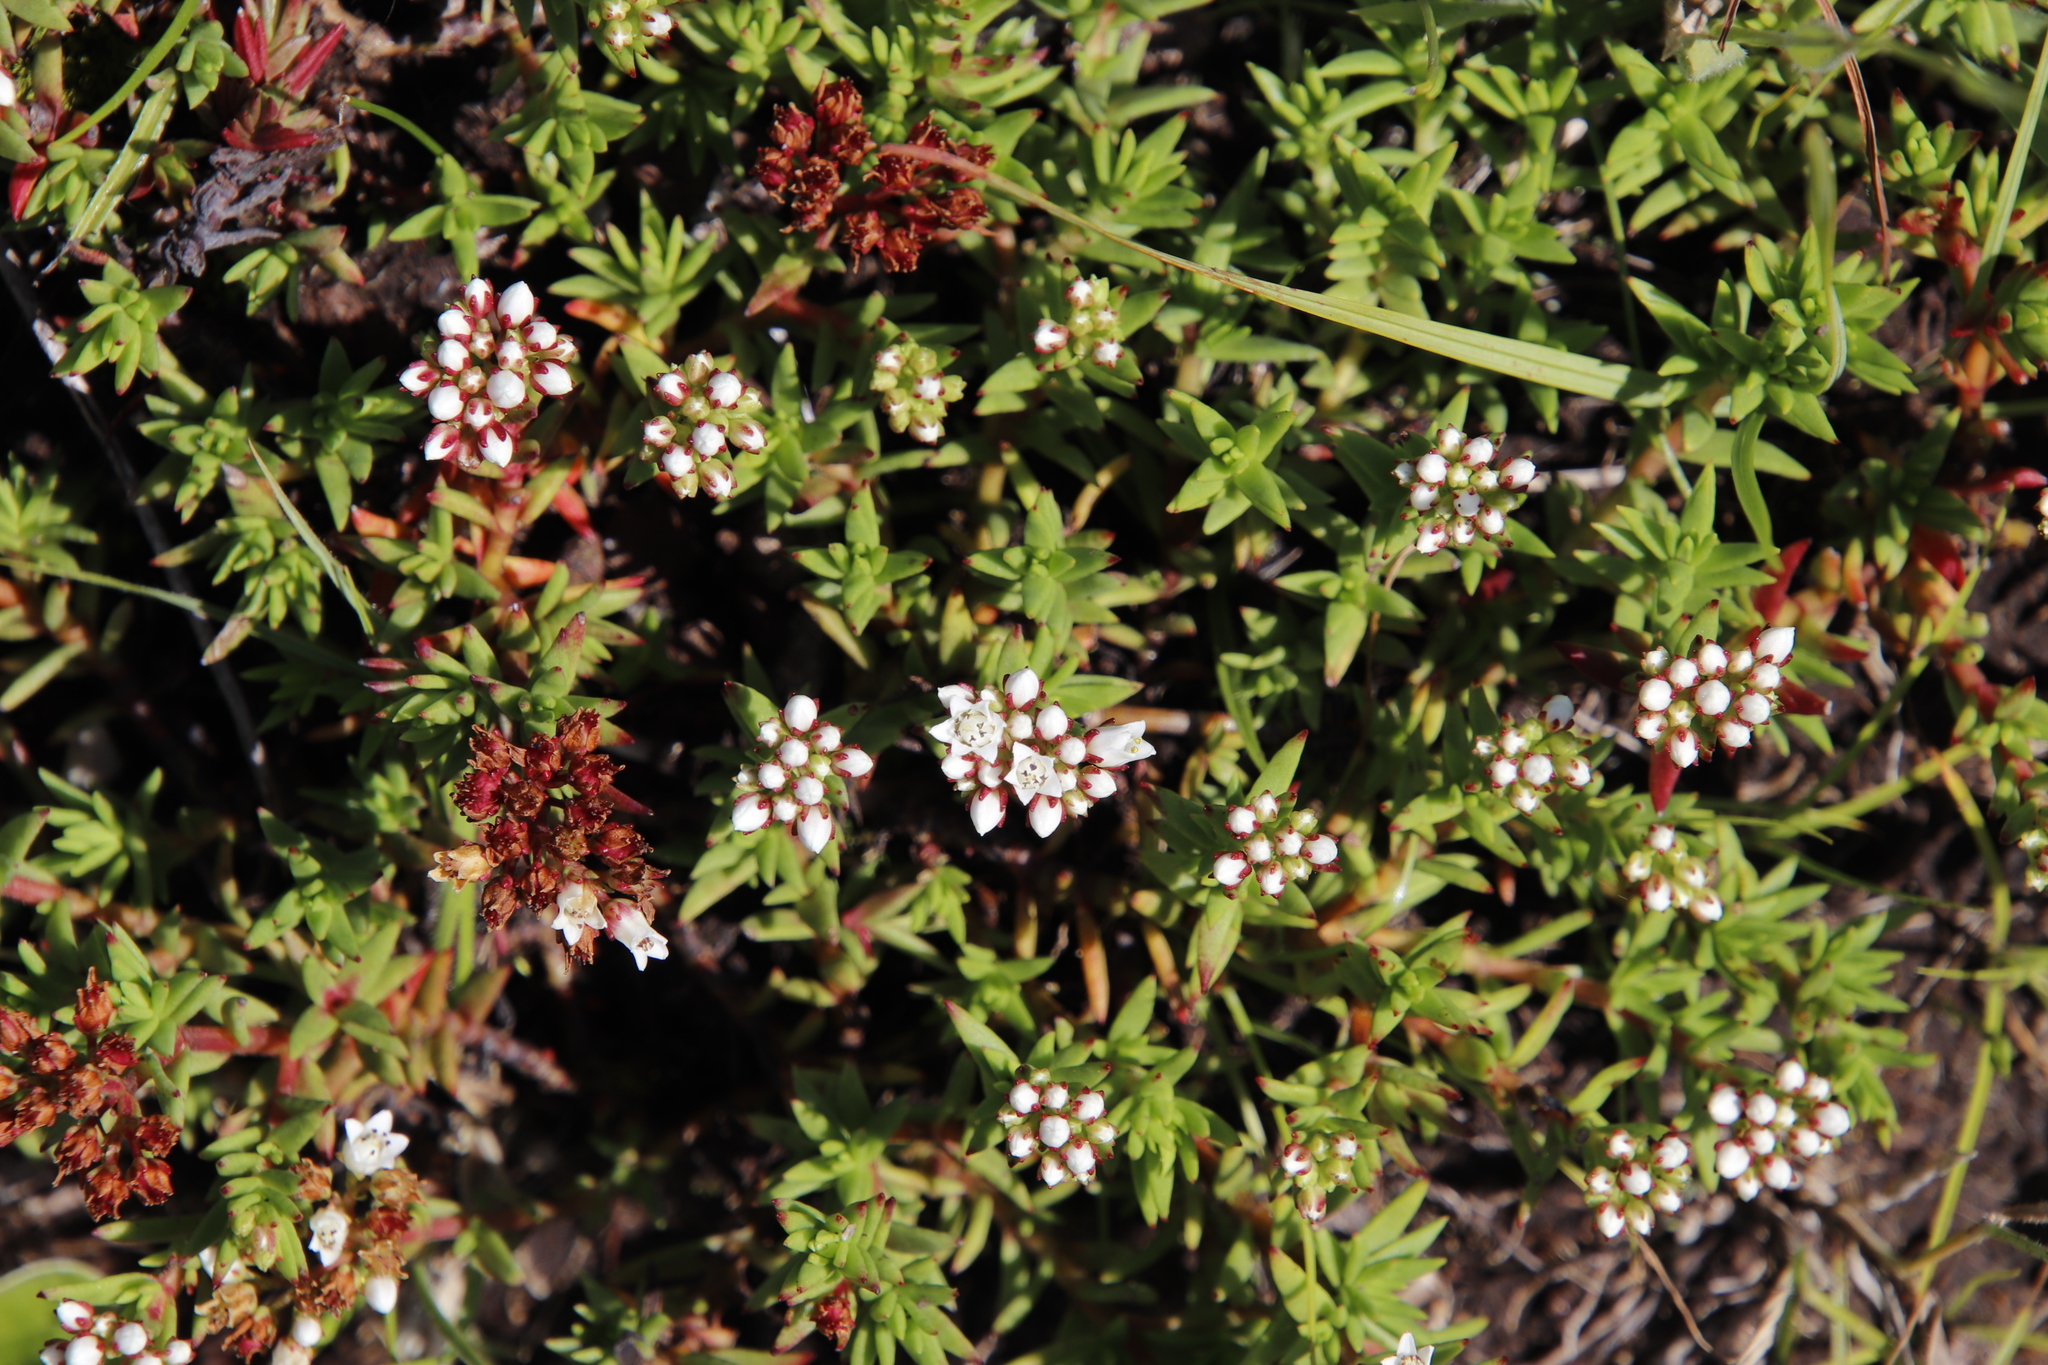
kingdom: Plantae
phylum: Tracheophyta
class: Magnoliopsida
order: Saxifragales
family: Crassulaceae
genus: Crassula
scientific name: Crassula dependens
